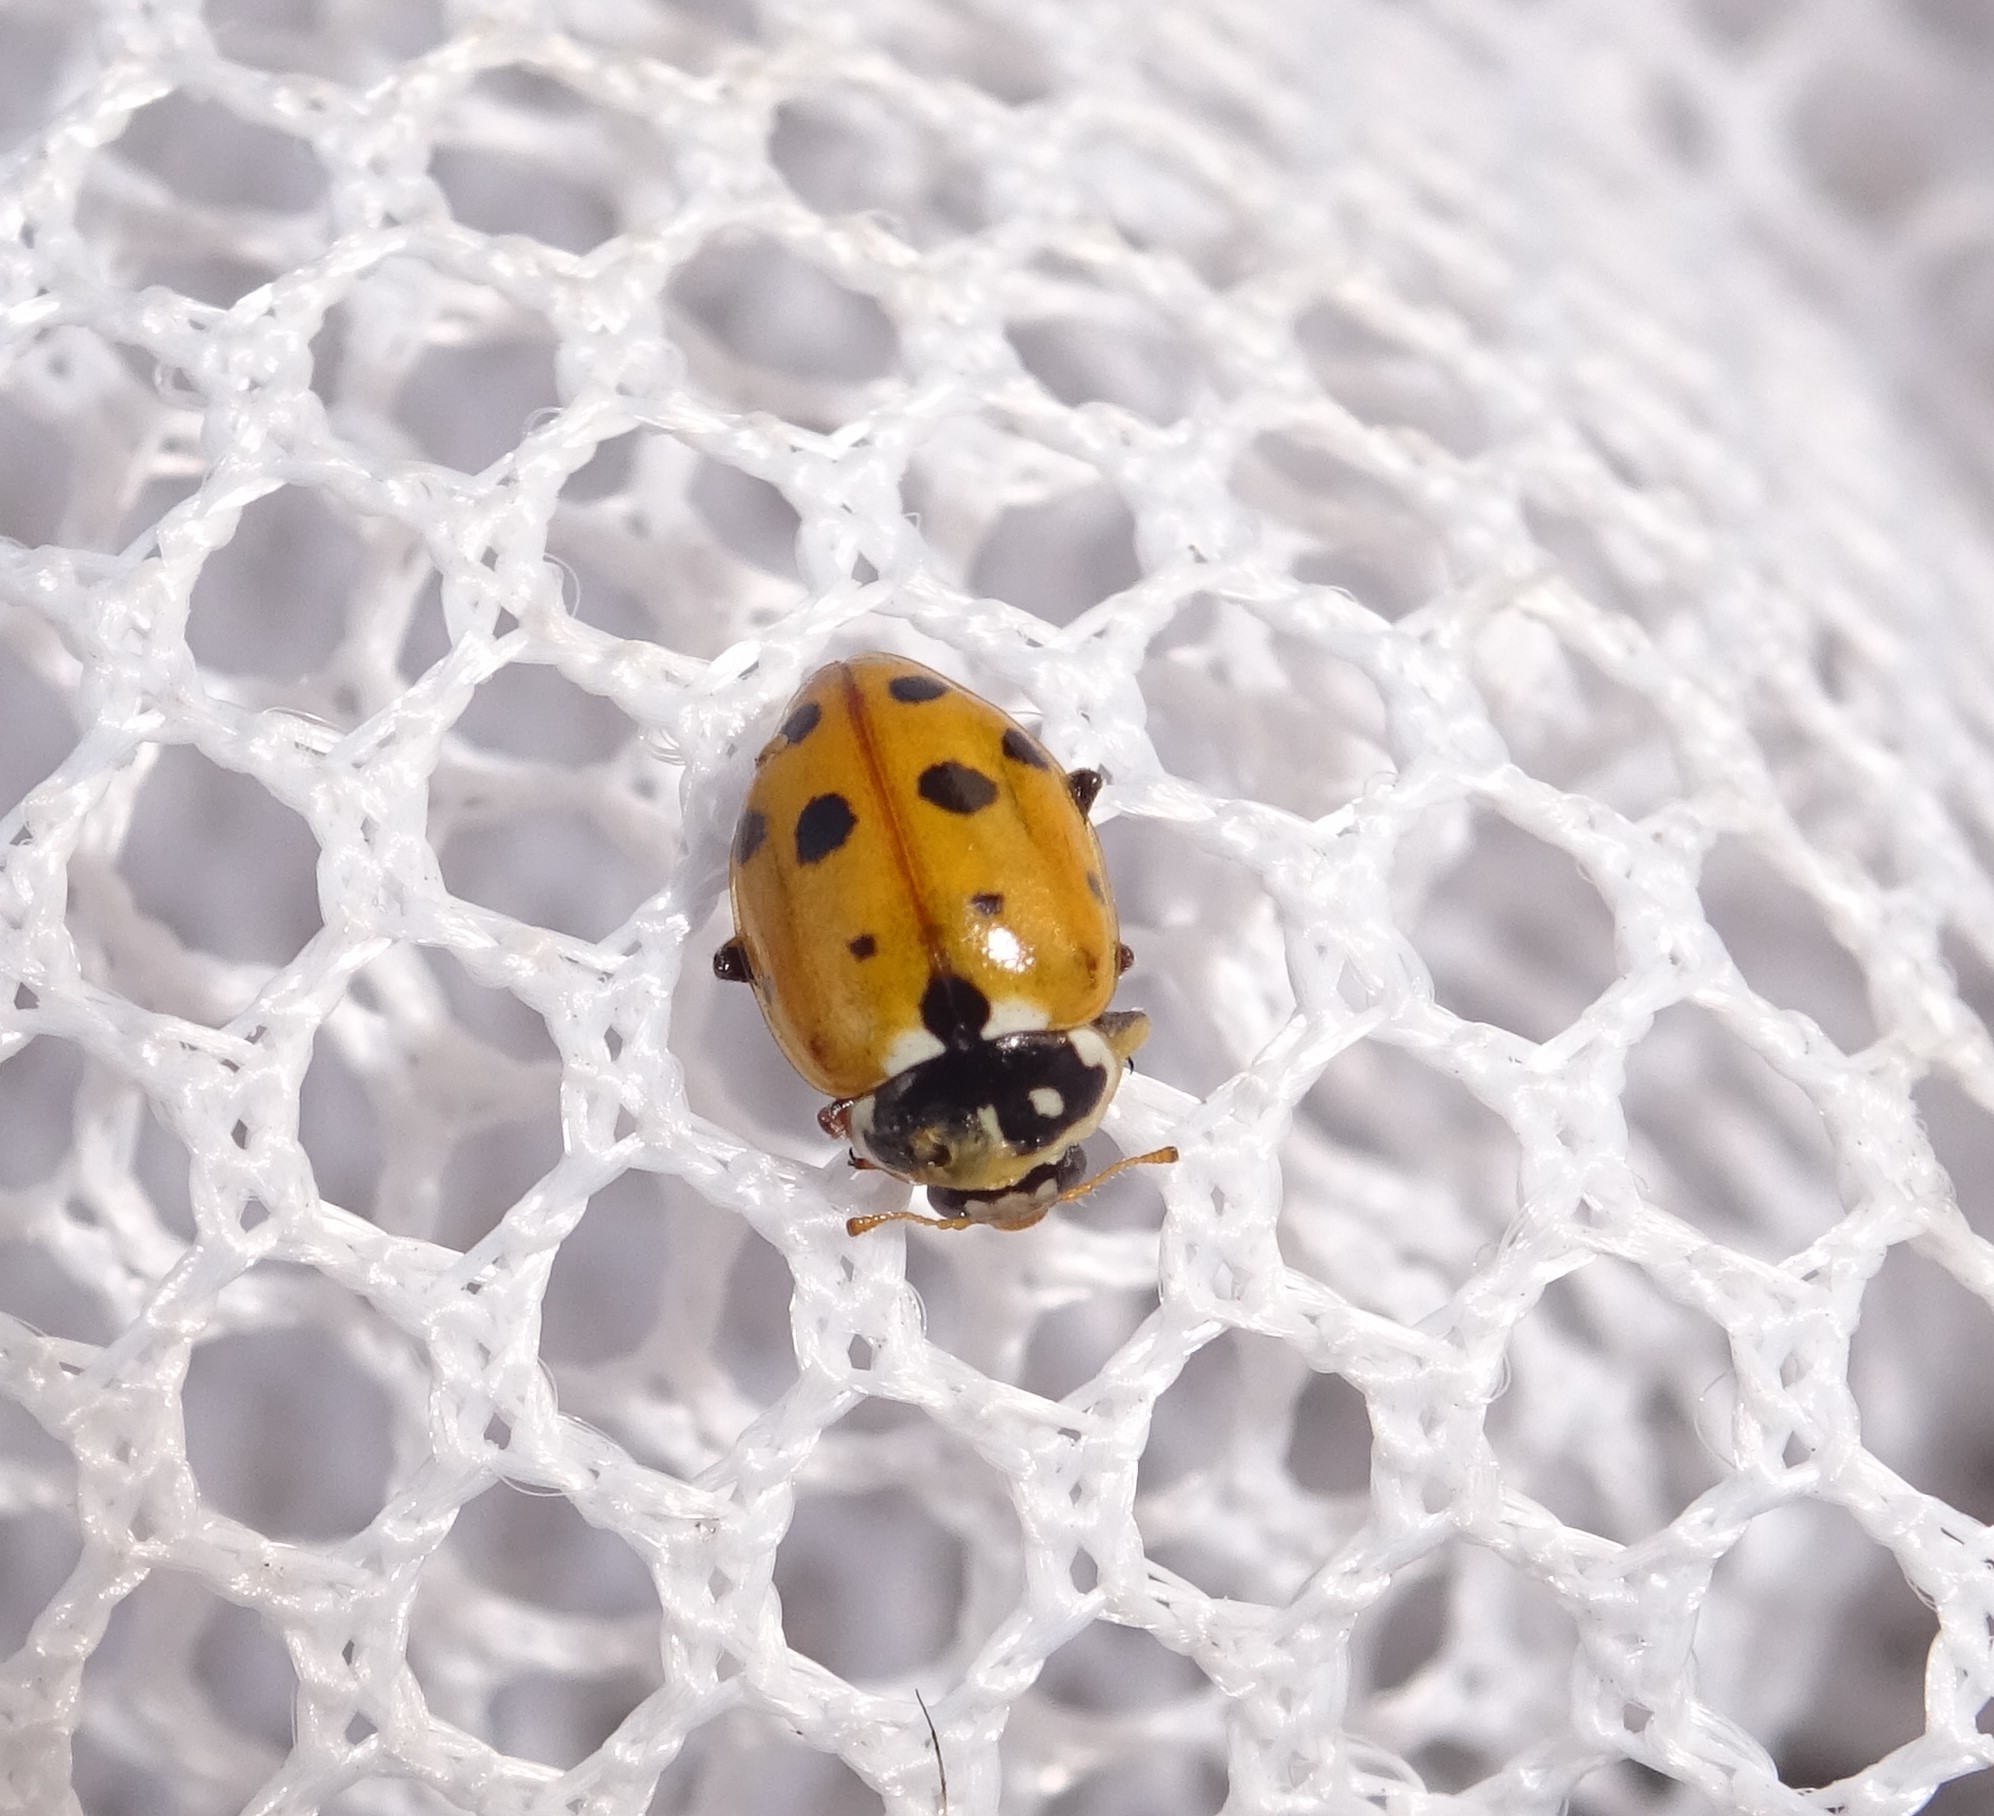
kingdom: Animalia
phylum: Arthropoda
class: Insecta
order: Coleoptera
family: Coccinellidae
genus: Hippodamia
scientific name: Hippodamia variegata
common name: Ladybird beetle
